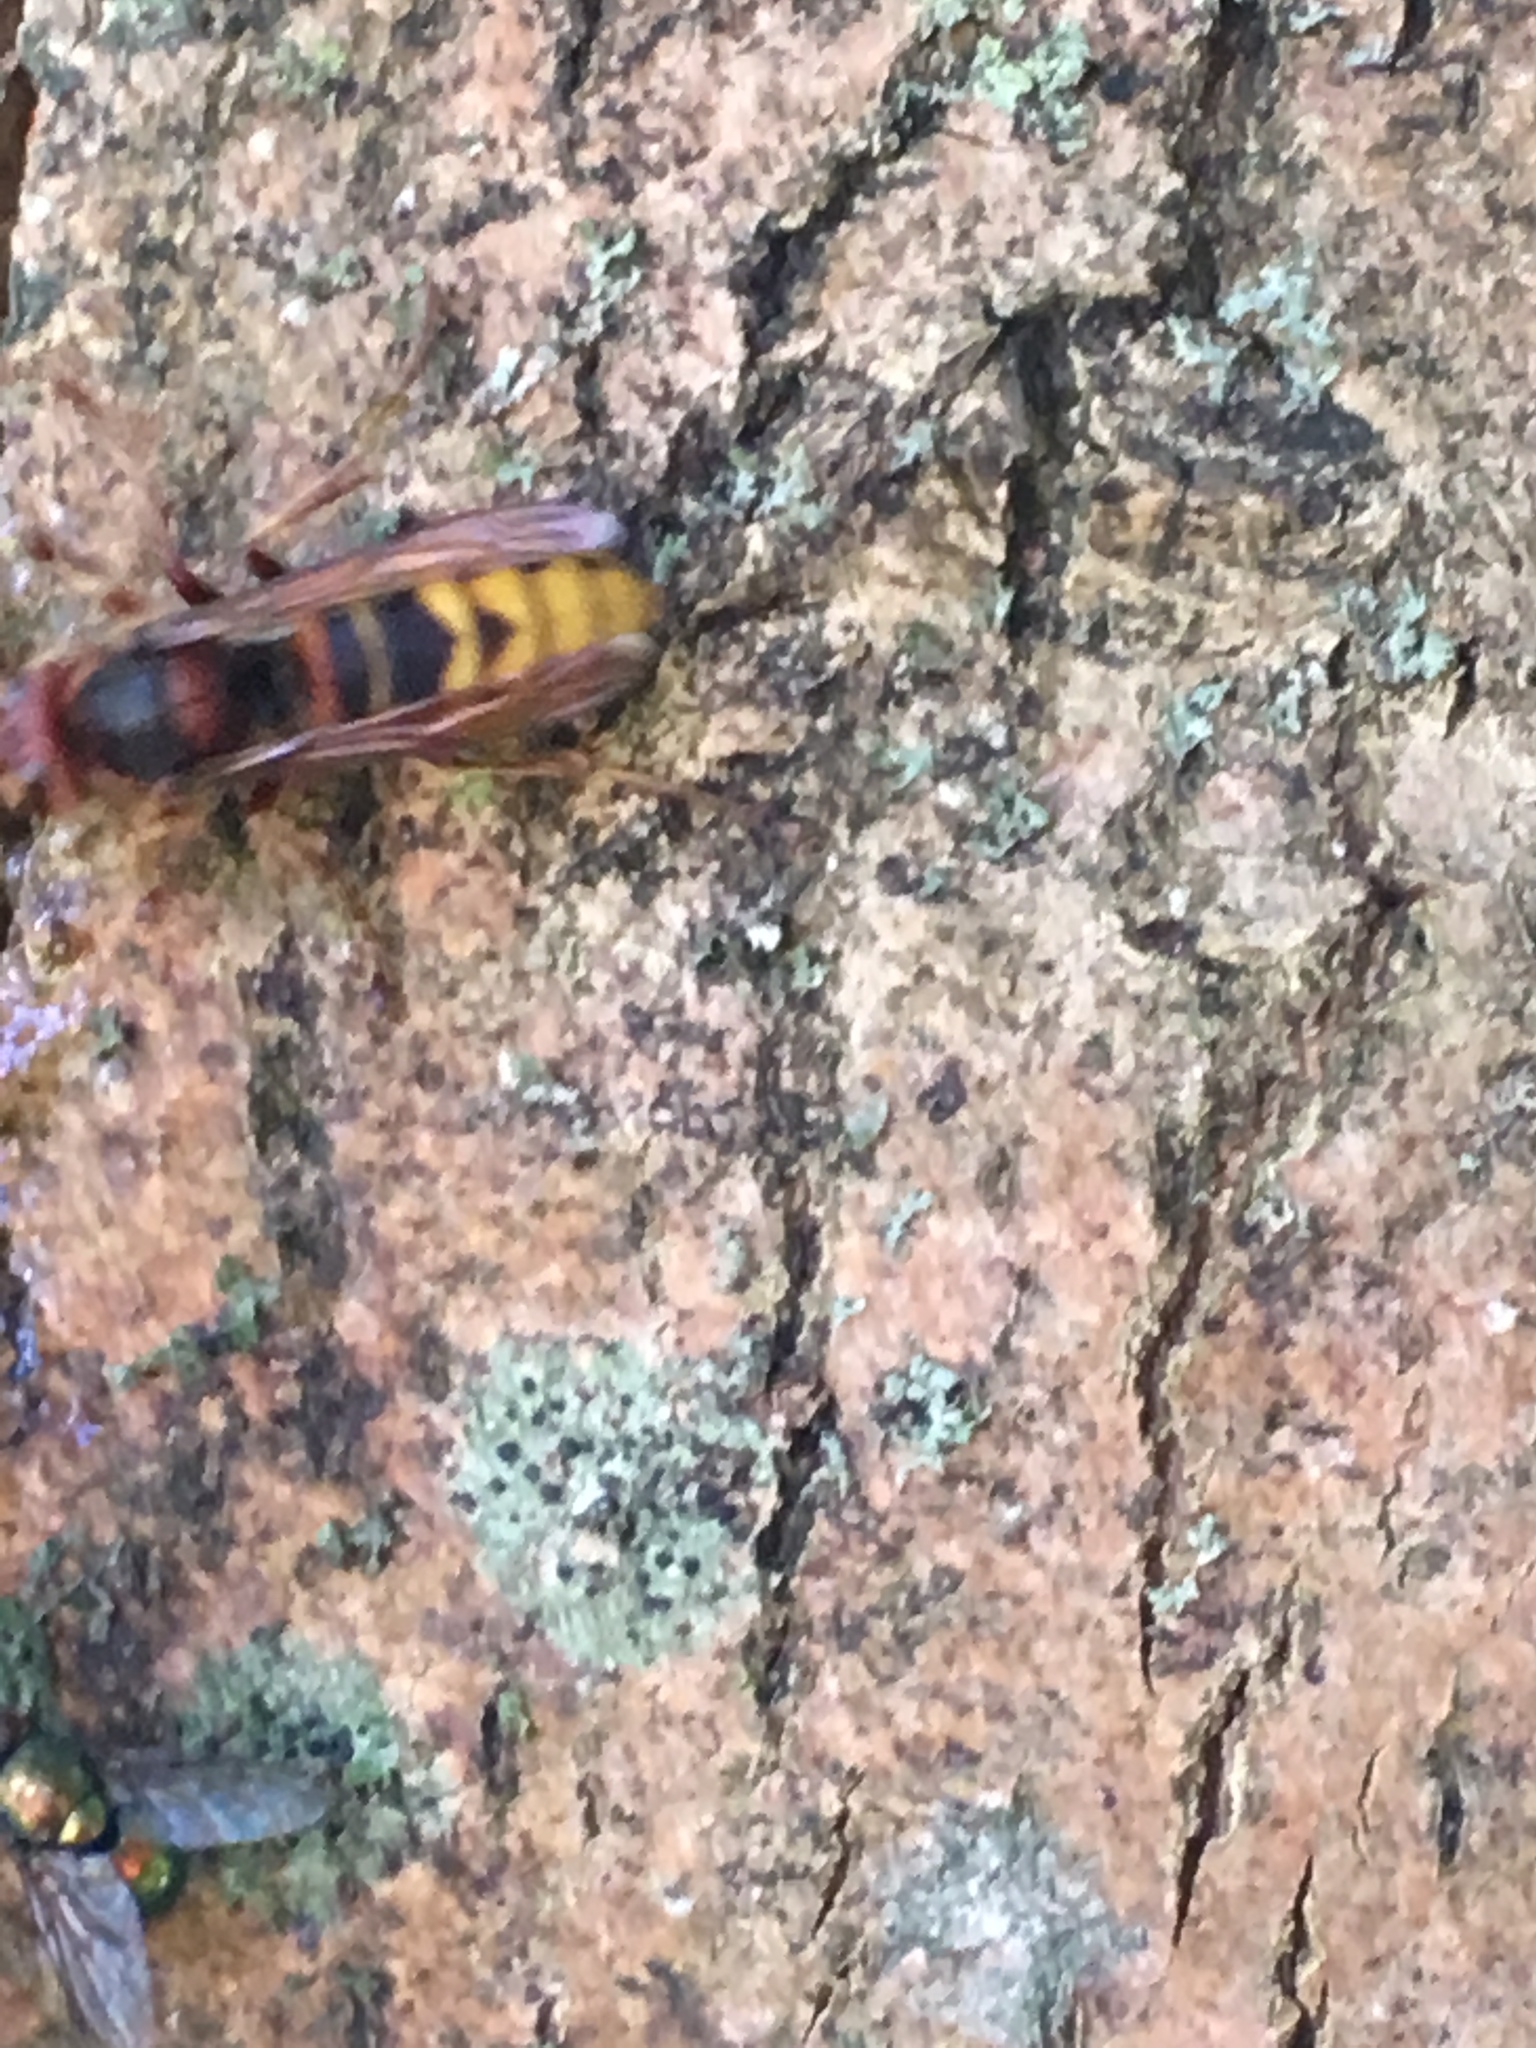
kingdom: Animalia
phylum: Arthropoda
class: Insecta
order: Hymenoptera
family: Vespidae
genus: Vespa
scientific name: Vespa crabro
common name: Hornet
